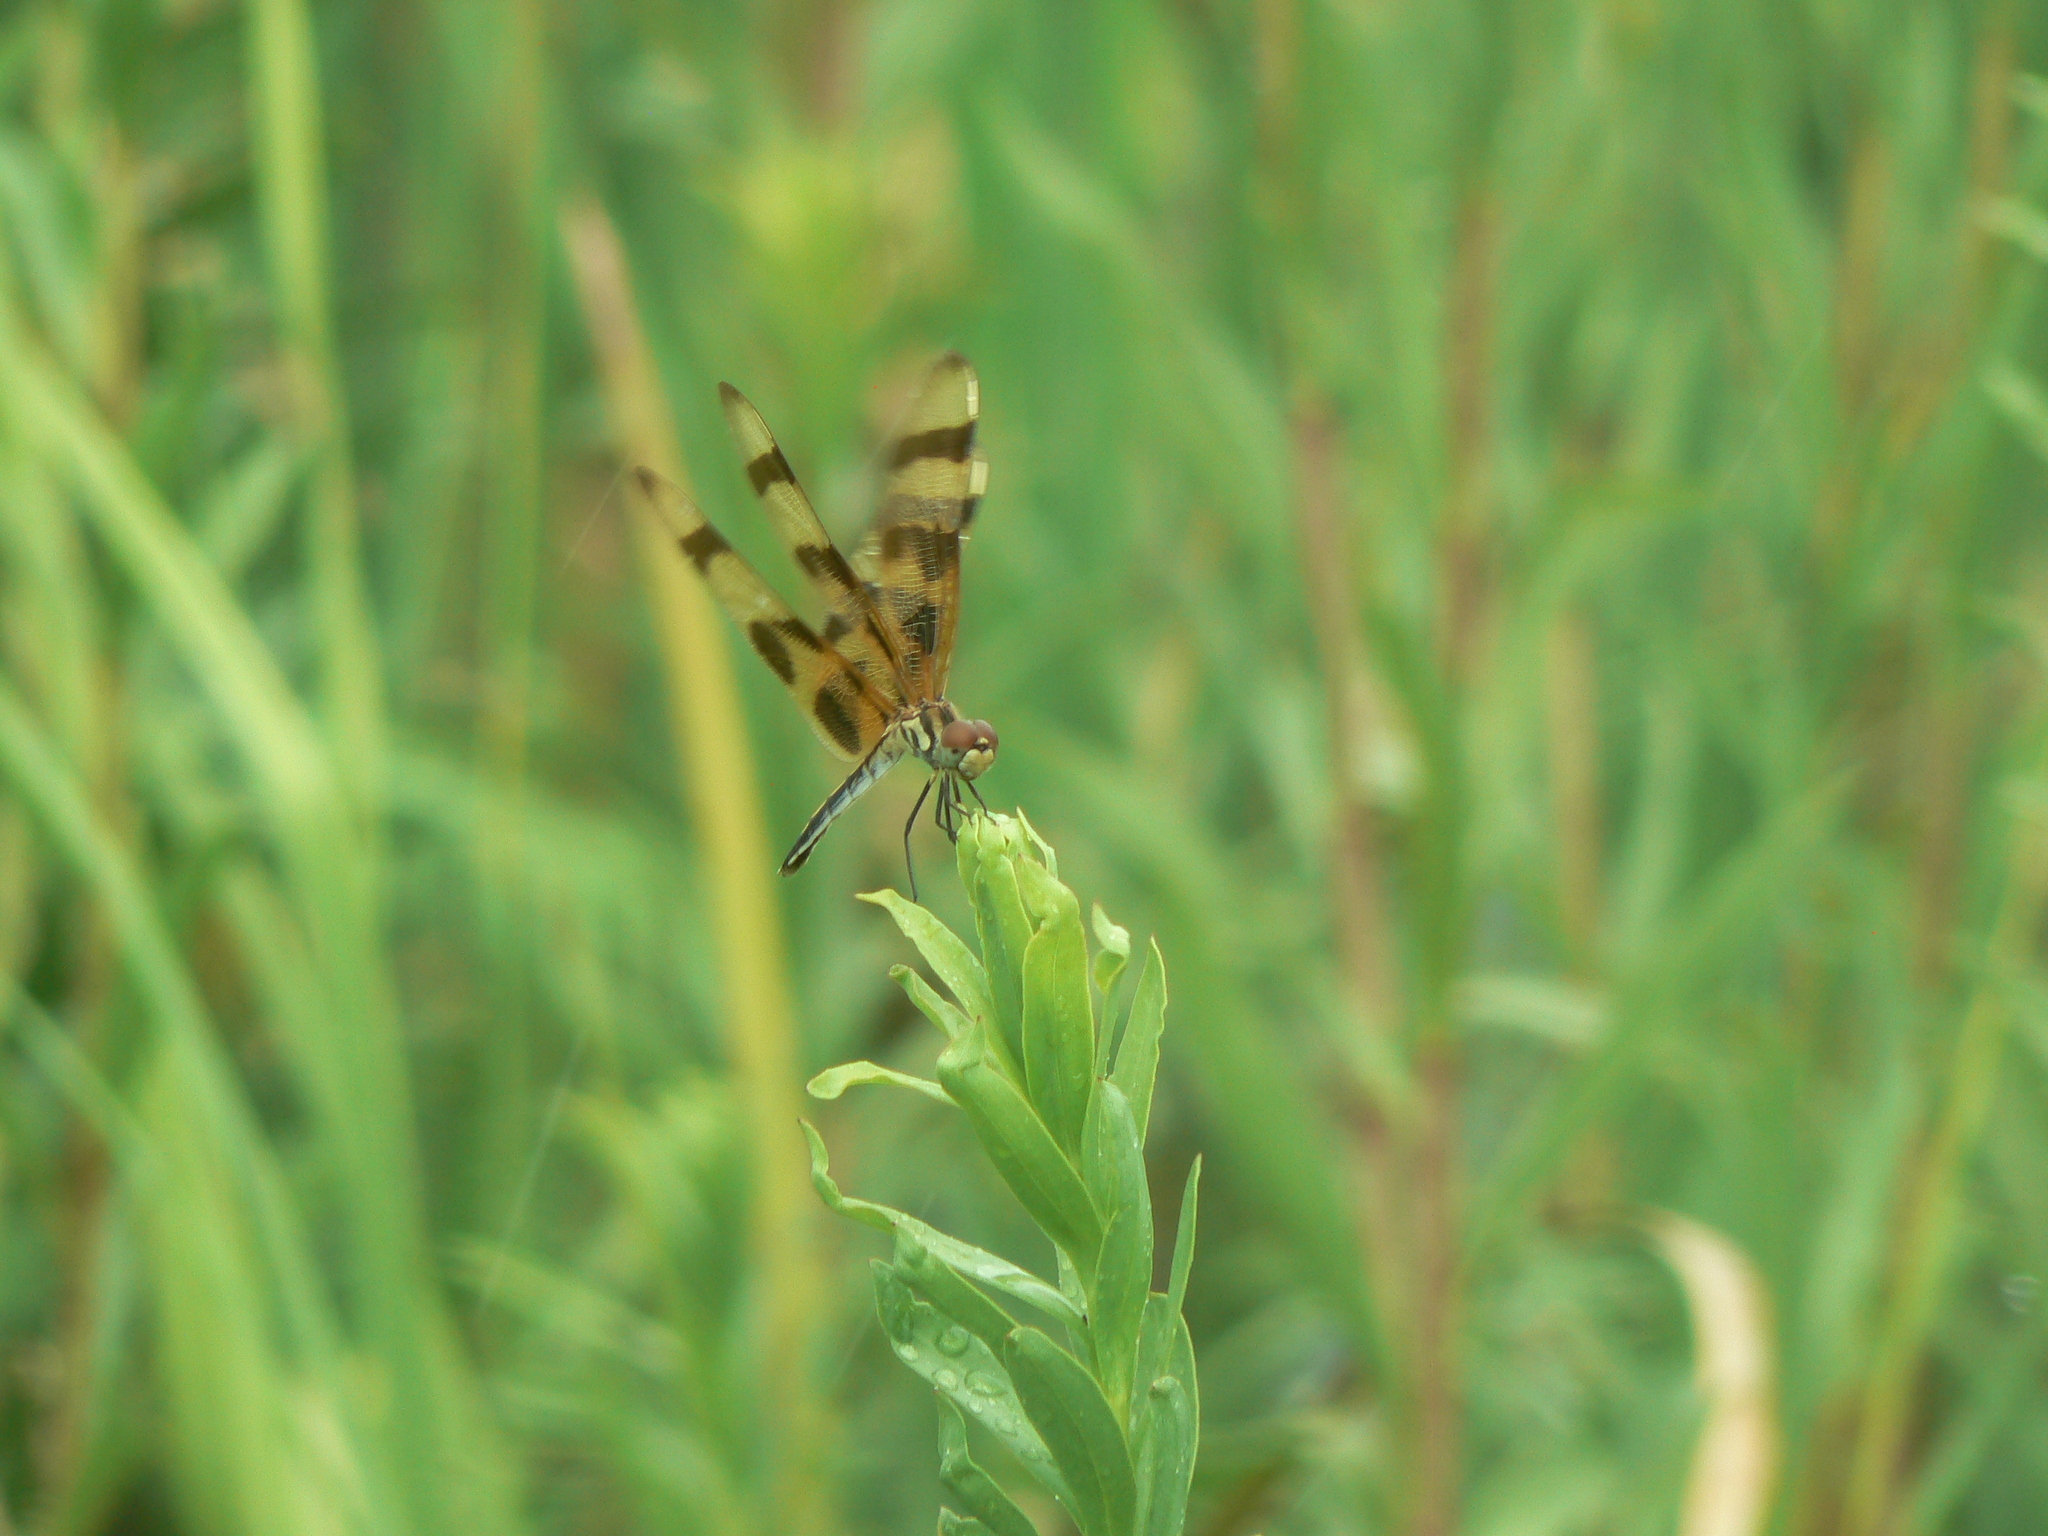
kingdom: Animalia
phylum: Arthropoda
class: Insecta
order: Odonata
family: Libellulidae
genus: Celithemis
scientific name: Celithemis eponina
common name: Halloween pennant
